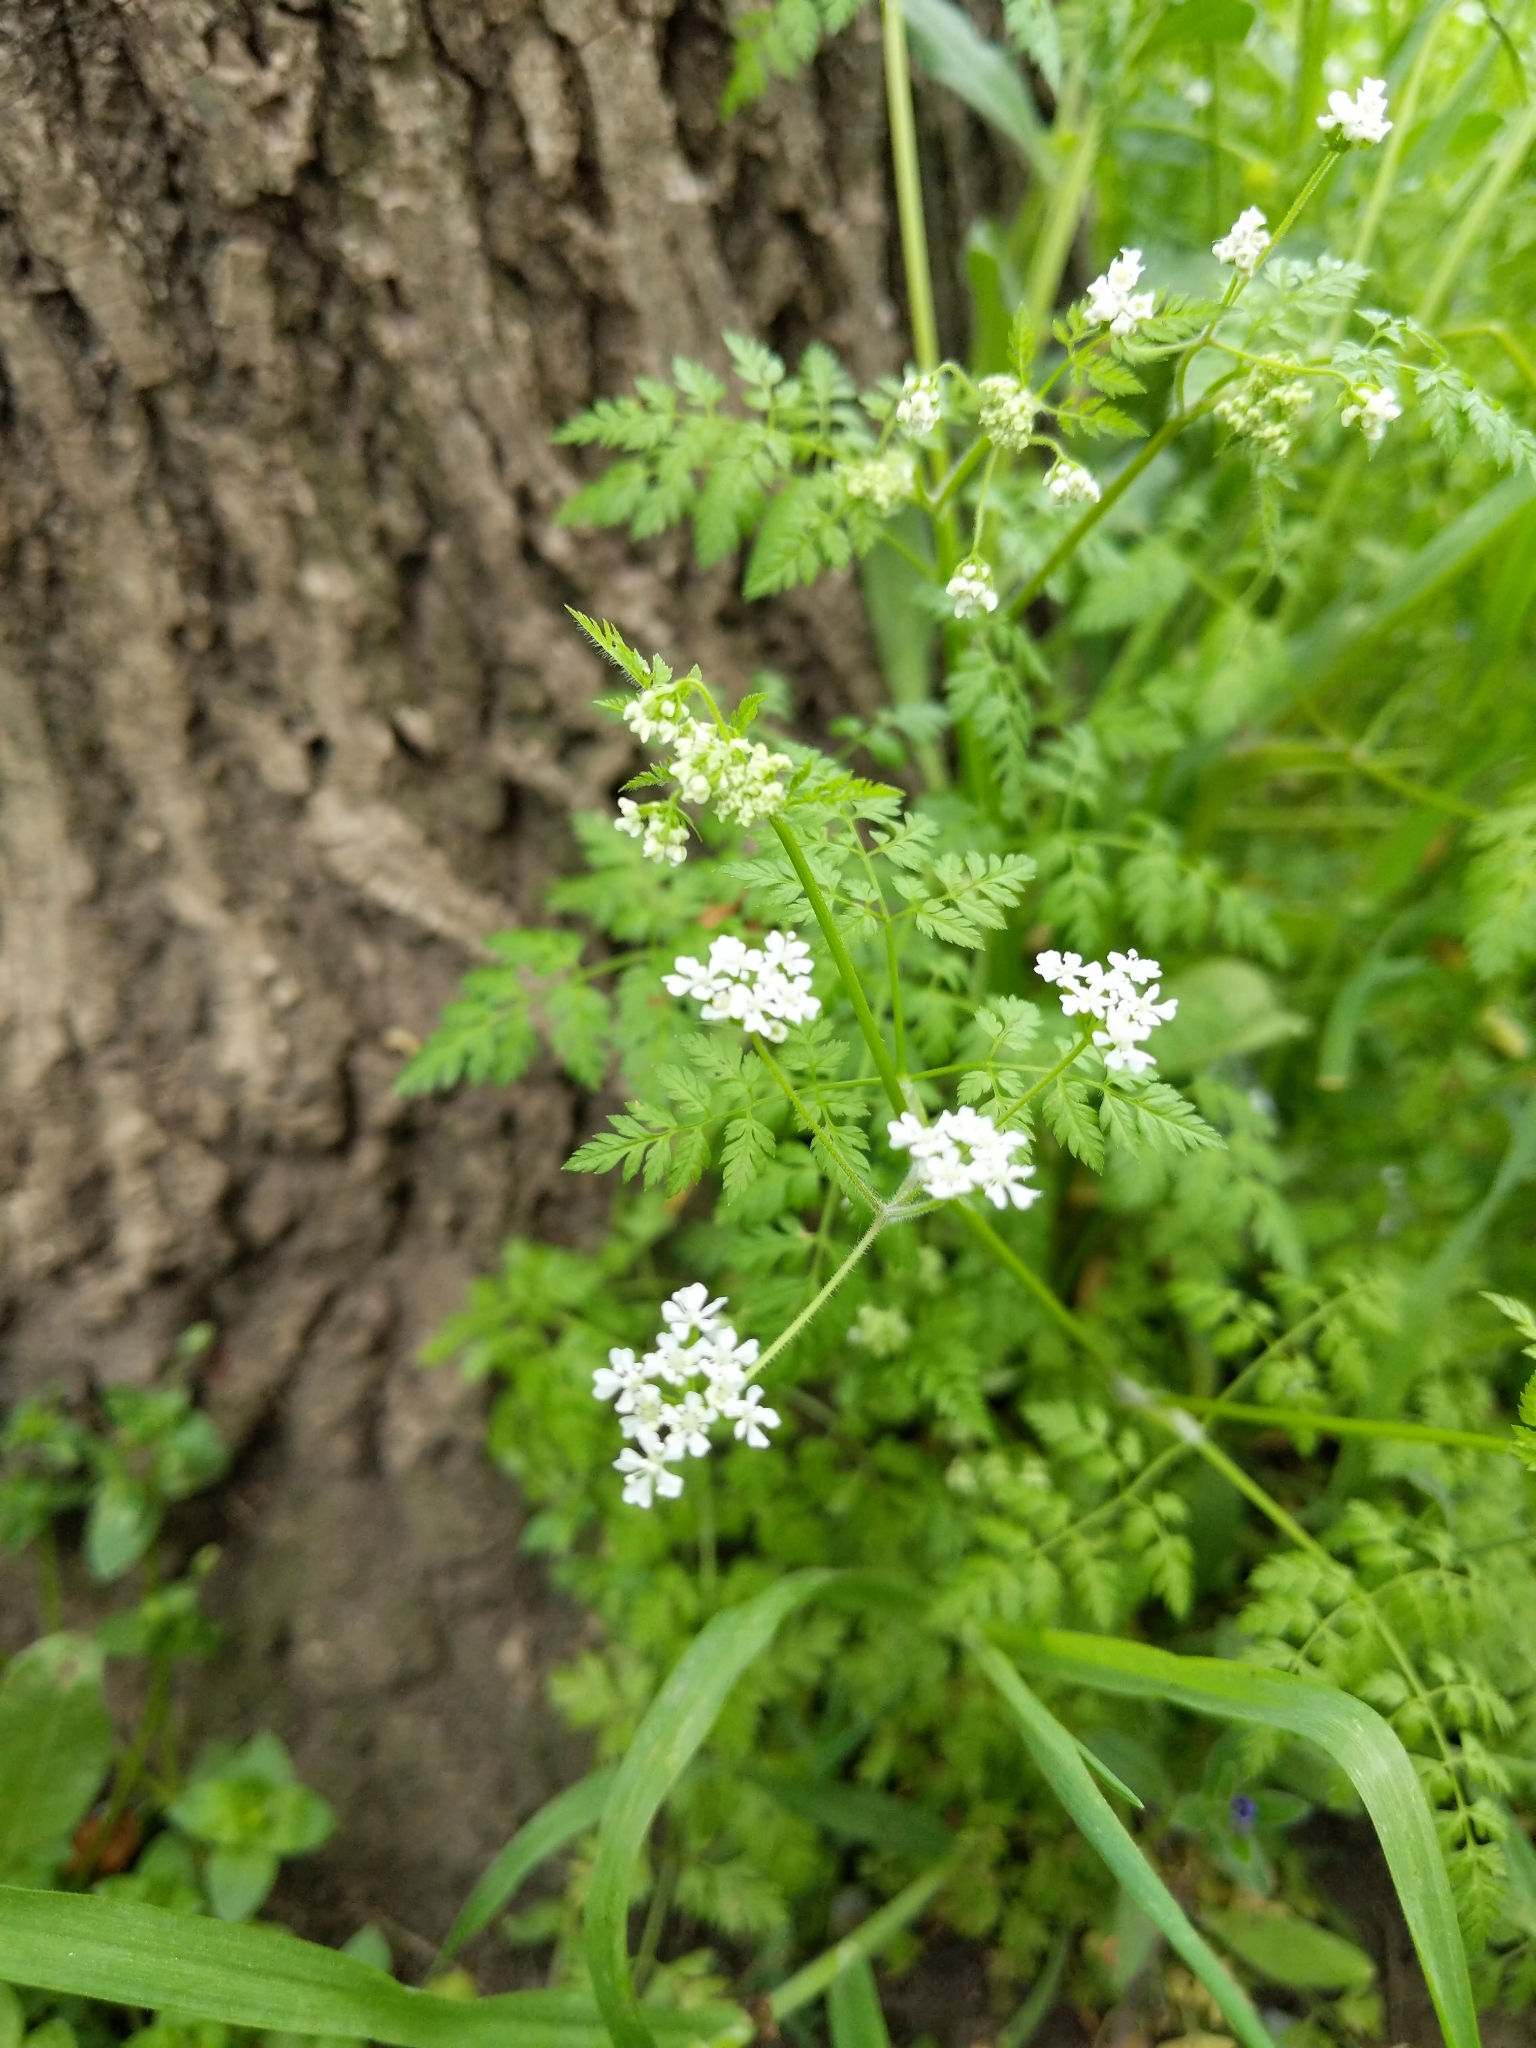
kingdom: Plantae
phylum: Tracheophyta
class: Magnoliopsida
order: Apiales
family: Apiaceae
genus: Anthriscus
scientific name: Anthriscus caucalis
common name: Bur chervil
